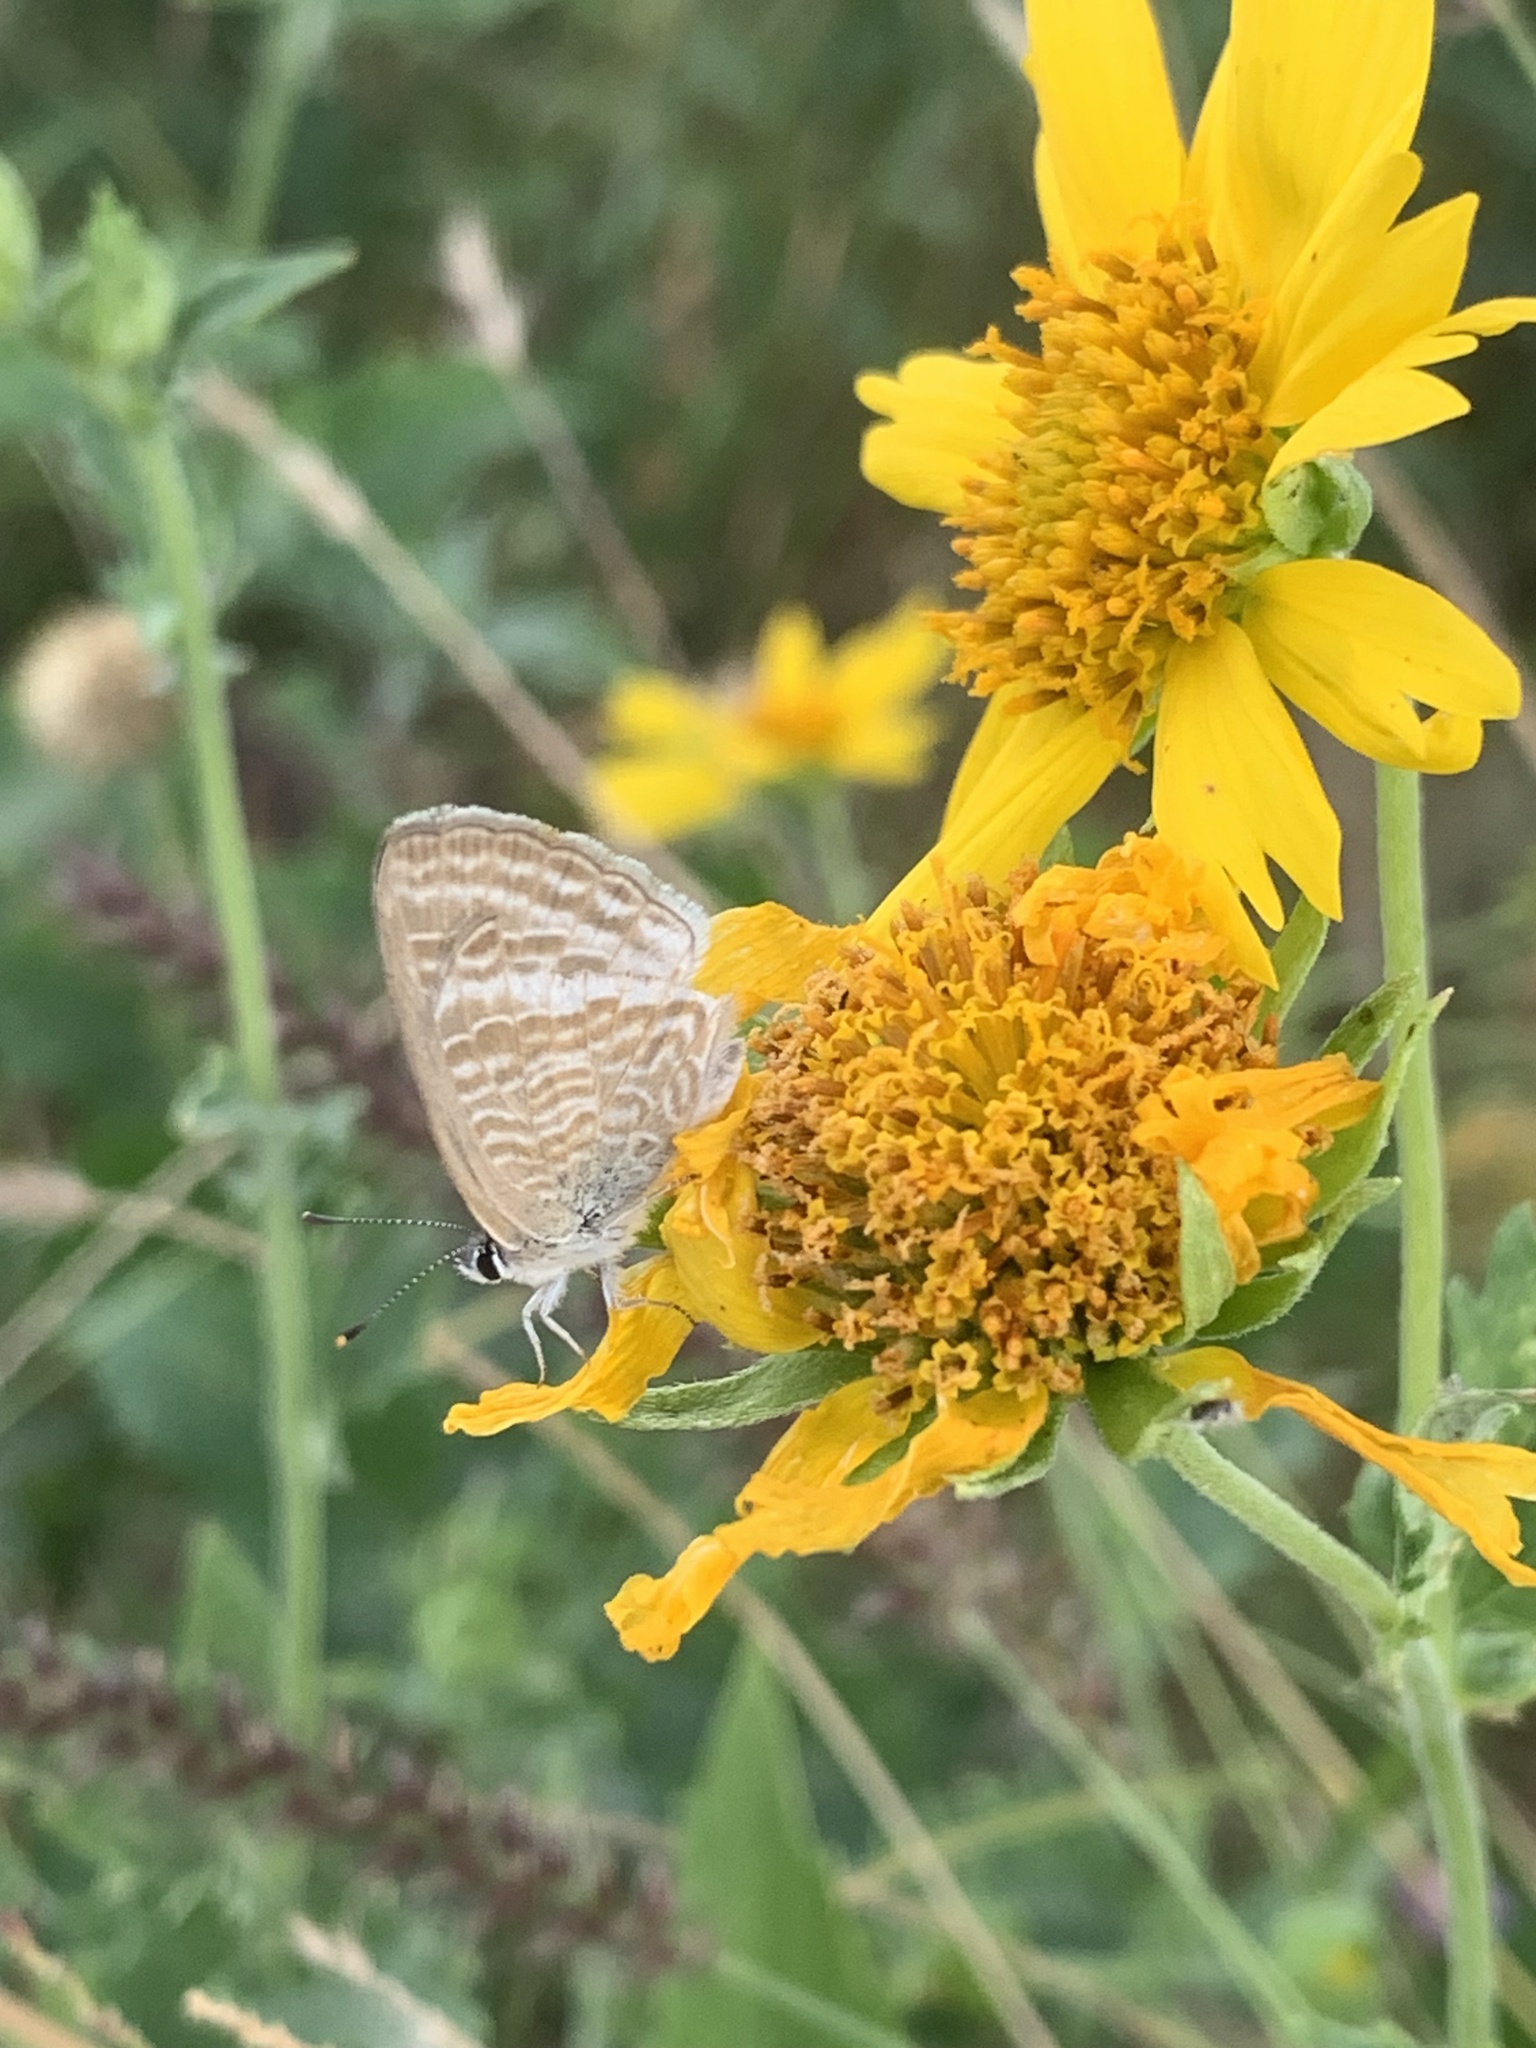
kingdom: Animalia
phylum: Arthropoda
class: Insecta
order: Lepidoptera
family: Lycaenidae
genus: Lampides
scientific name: Lampides boeticus
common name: Long-tailed blue
